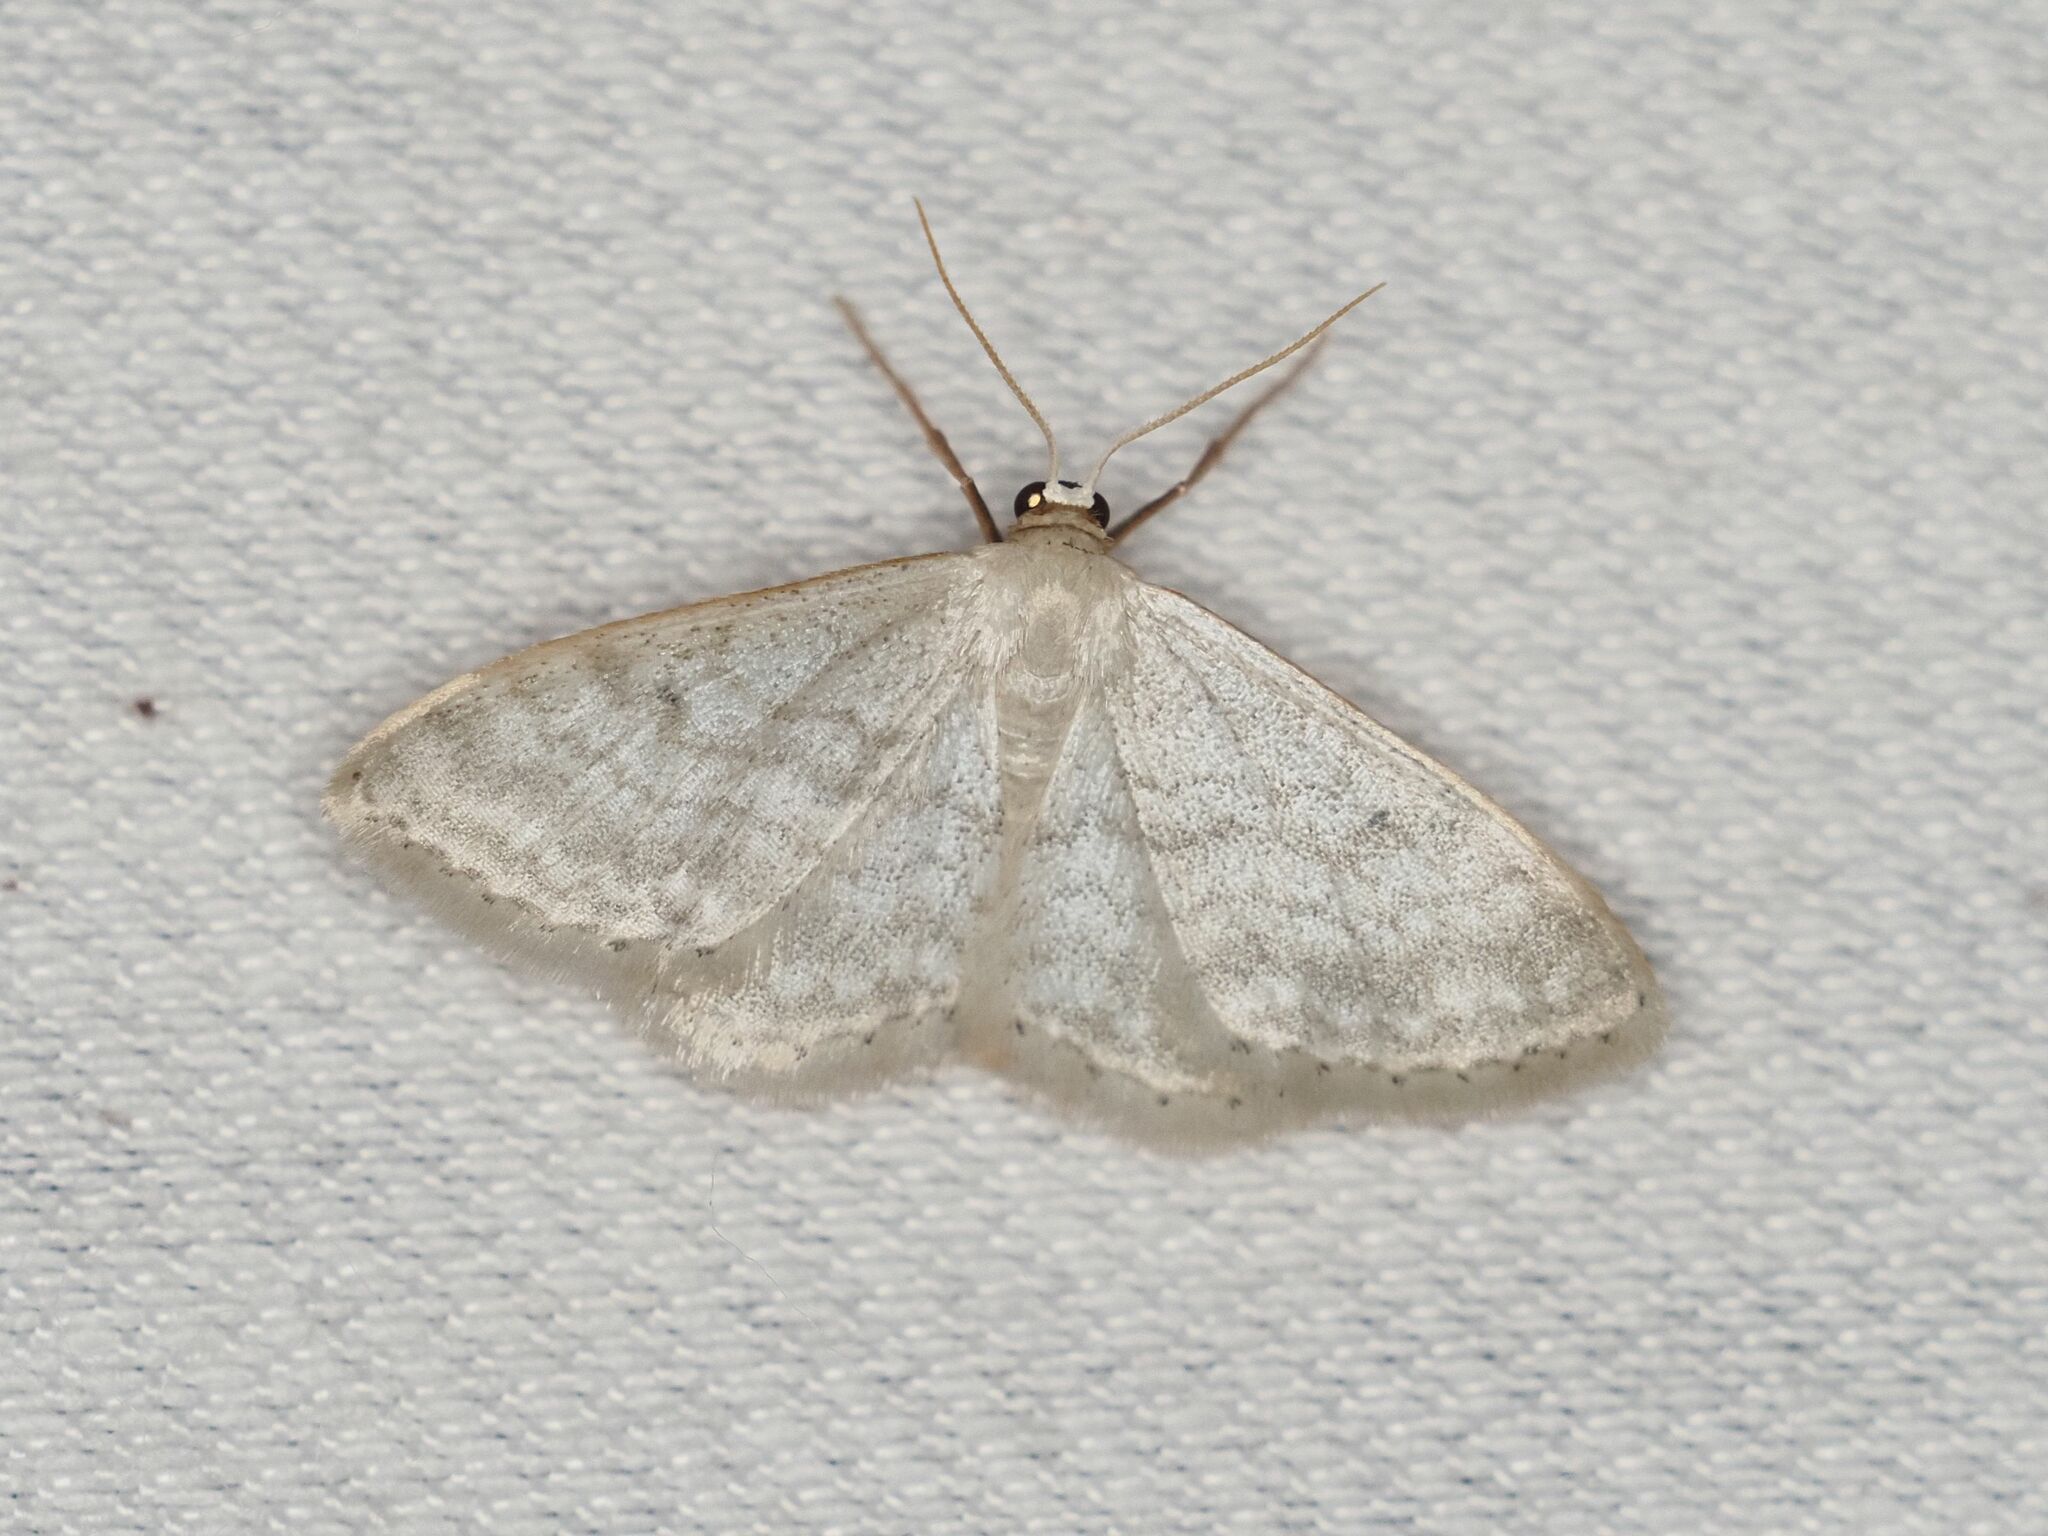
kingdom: Animalia
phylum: Arthropoda
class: Insecta
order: Lepidoptera
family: Geometridae
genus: Idaea
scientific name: Idaea subsericeata
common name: Satin wave
